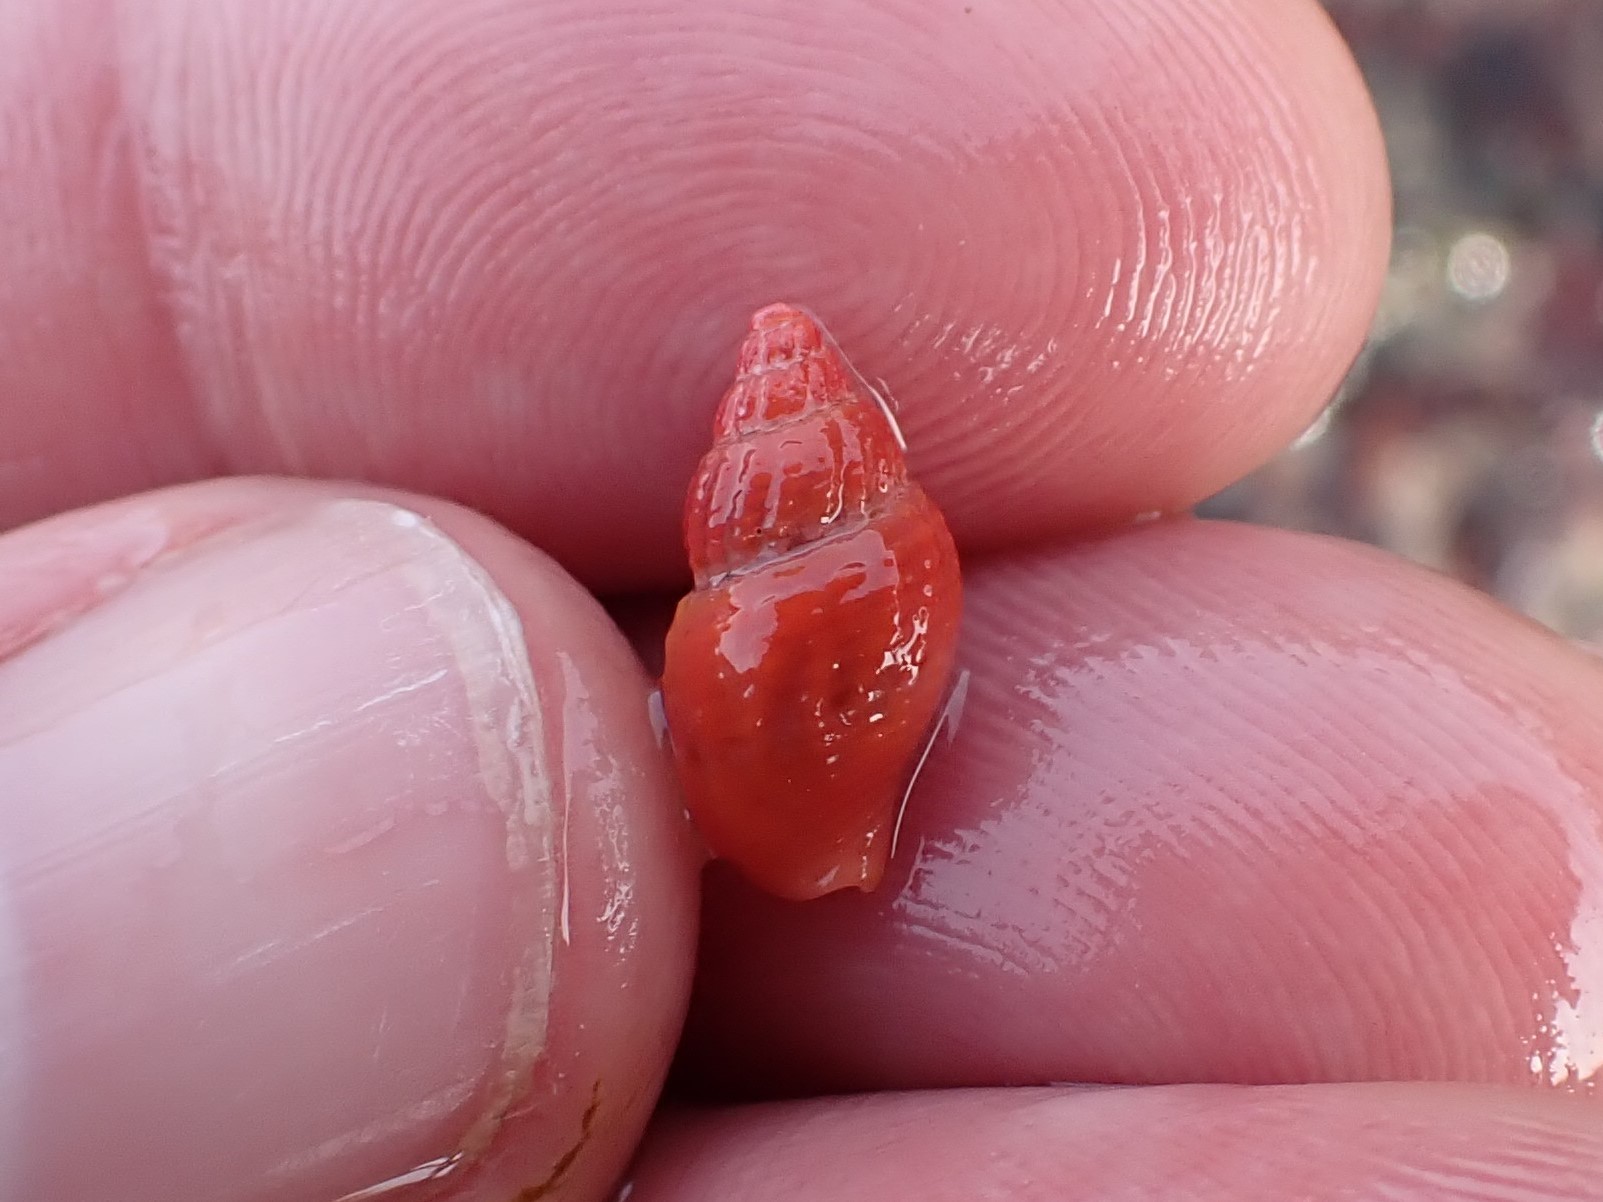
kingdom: Animalia
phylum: Mollusca
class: Gastropoda
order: Neogastropoda
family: Columbellidae
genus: Amphissa
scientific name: Amphissa versicolor
